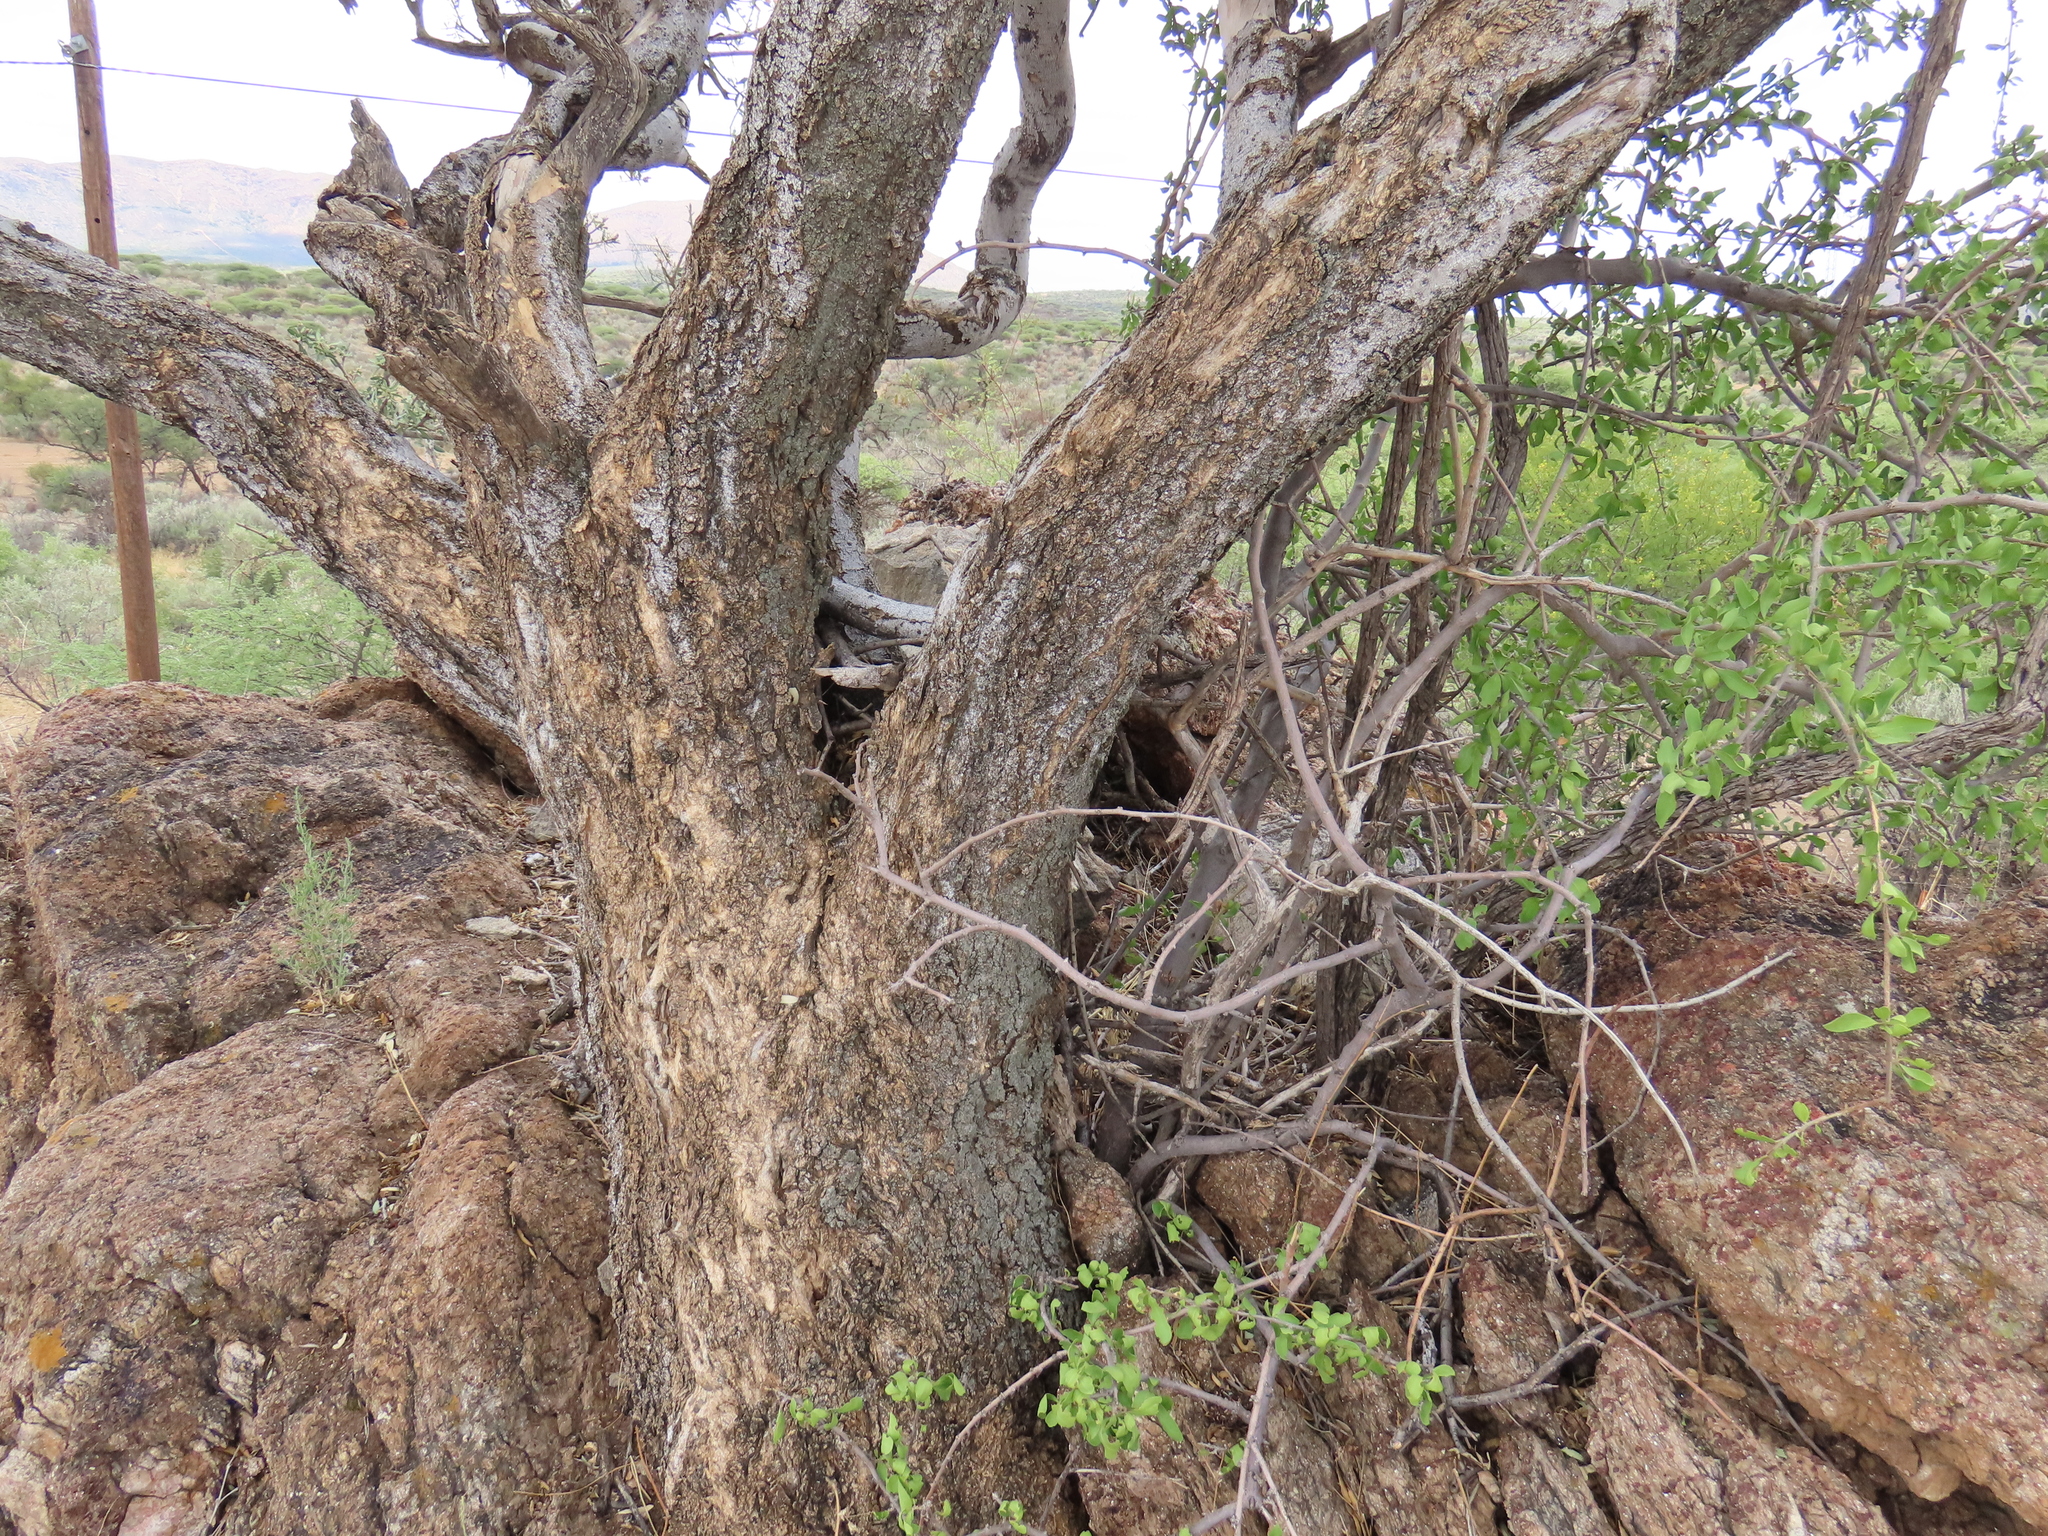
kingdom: Plantae
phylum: Tracheophyta
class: Magnoliopsida
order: Brassicales
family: Capparaceae
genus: Boscia
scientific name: Boscia albitrunca
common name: Caper bush
